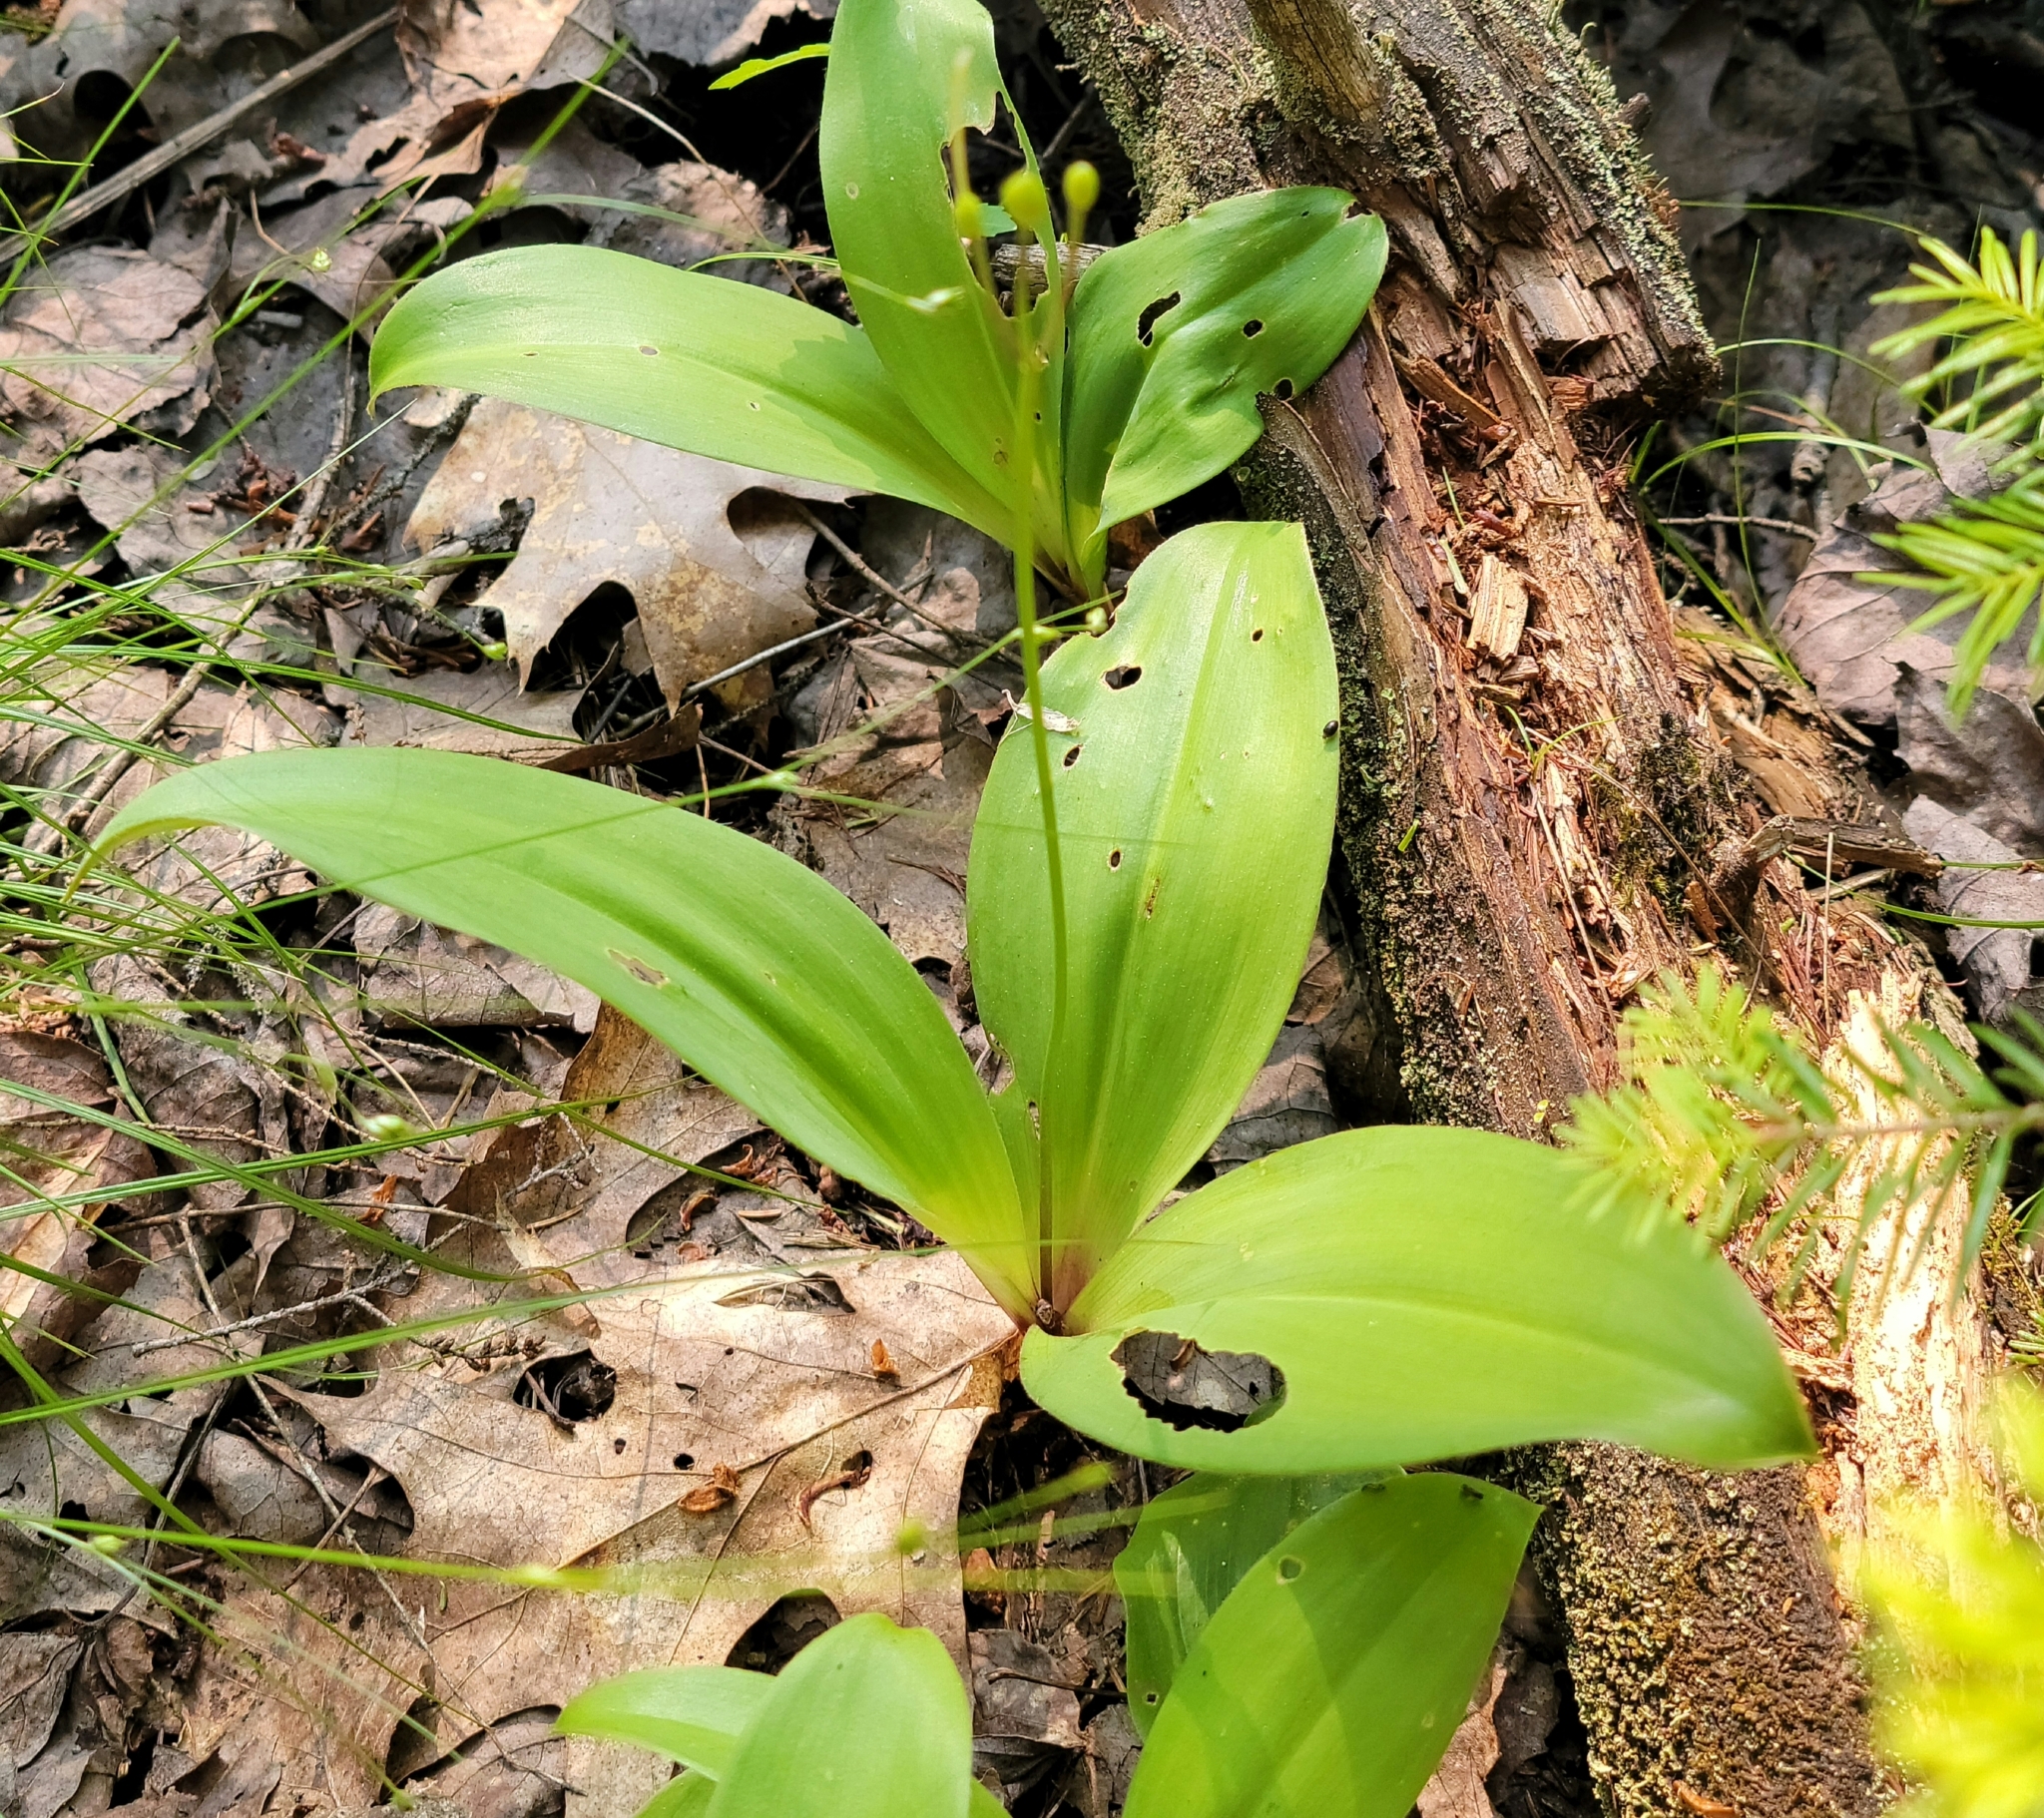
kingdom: Plantae
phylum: Tracheophyta
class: Liliopsida
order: Liliales
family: Liliaceae
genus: Clintonia
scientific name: Clintonia borealis
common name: Yellow clintonia
